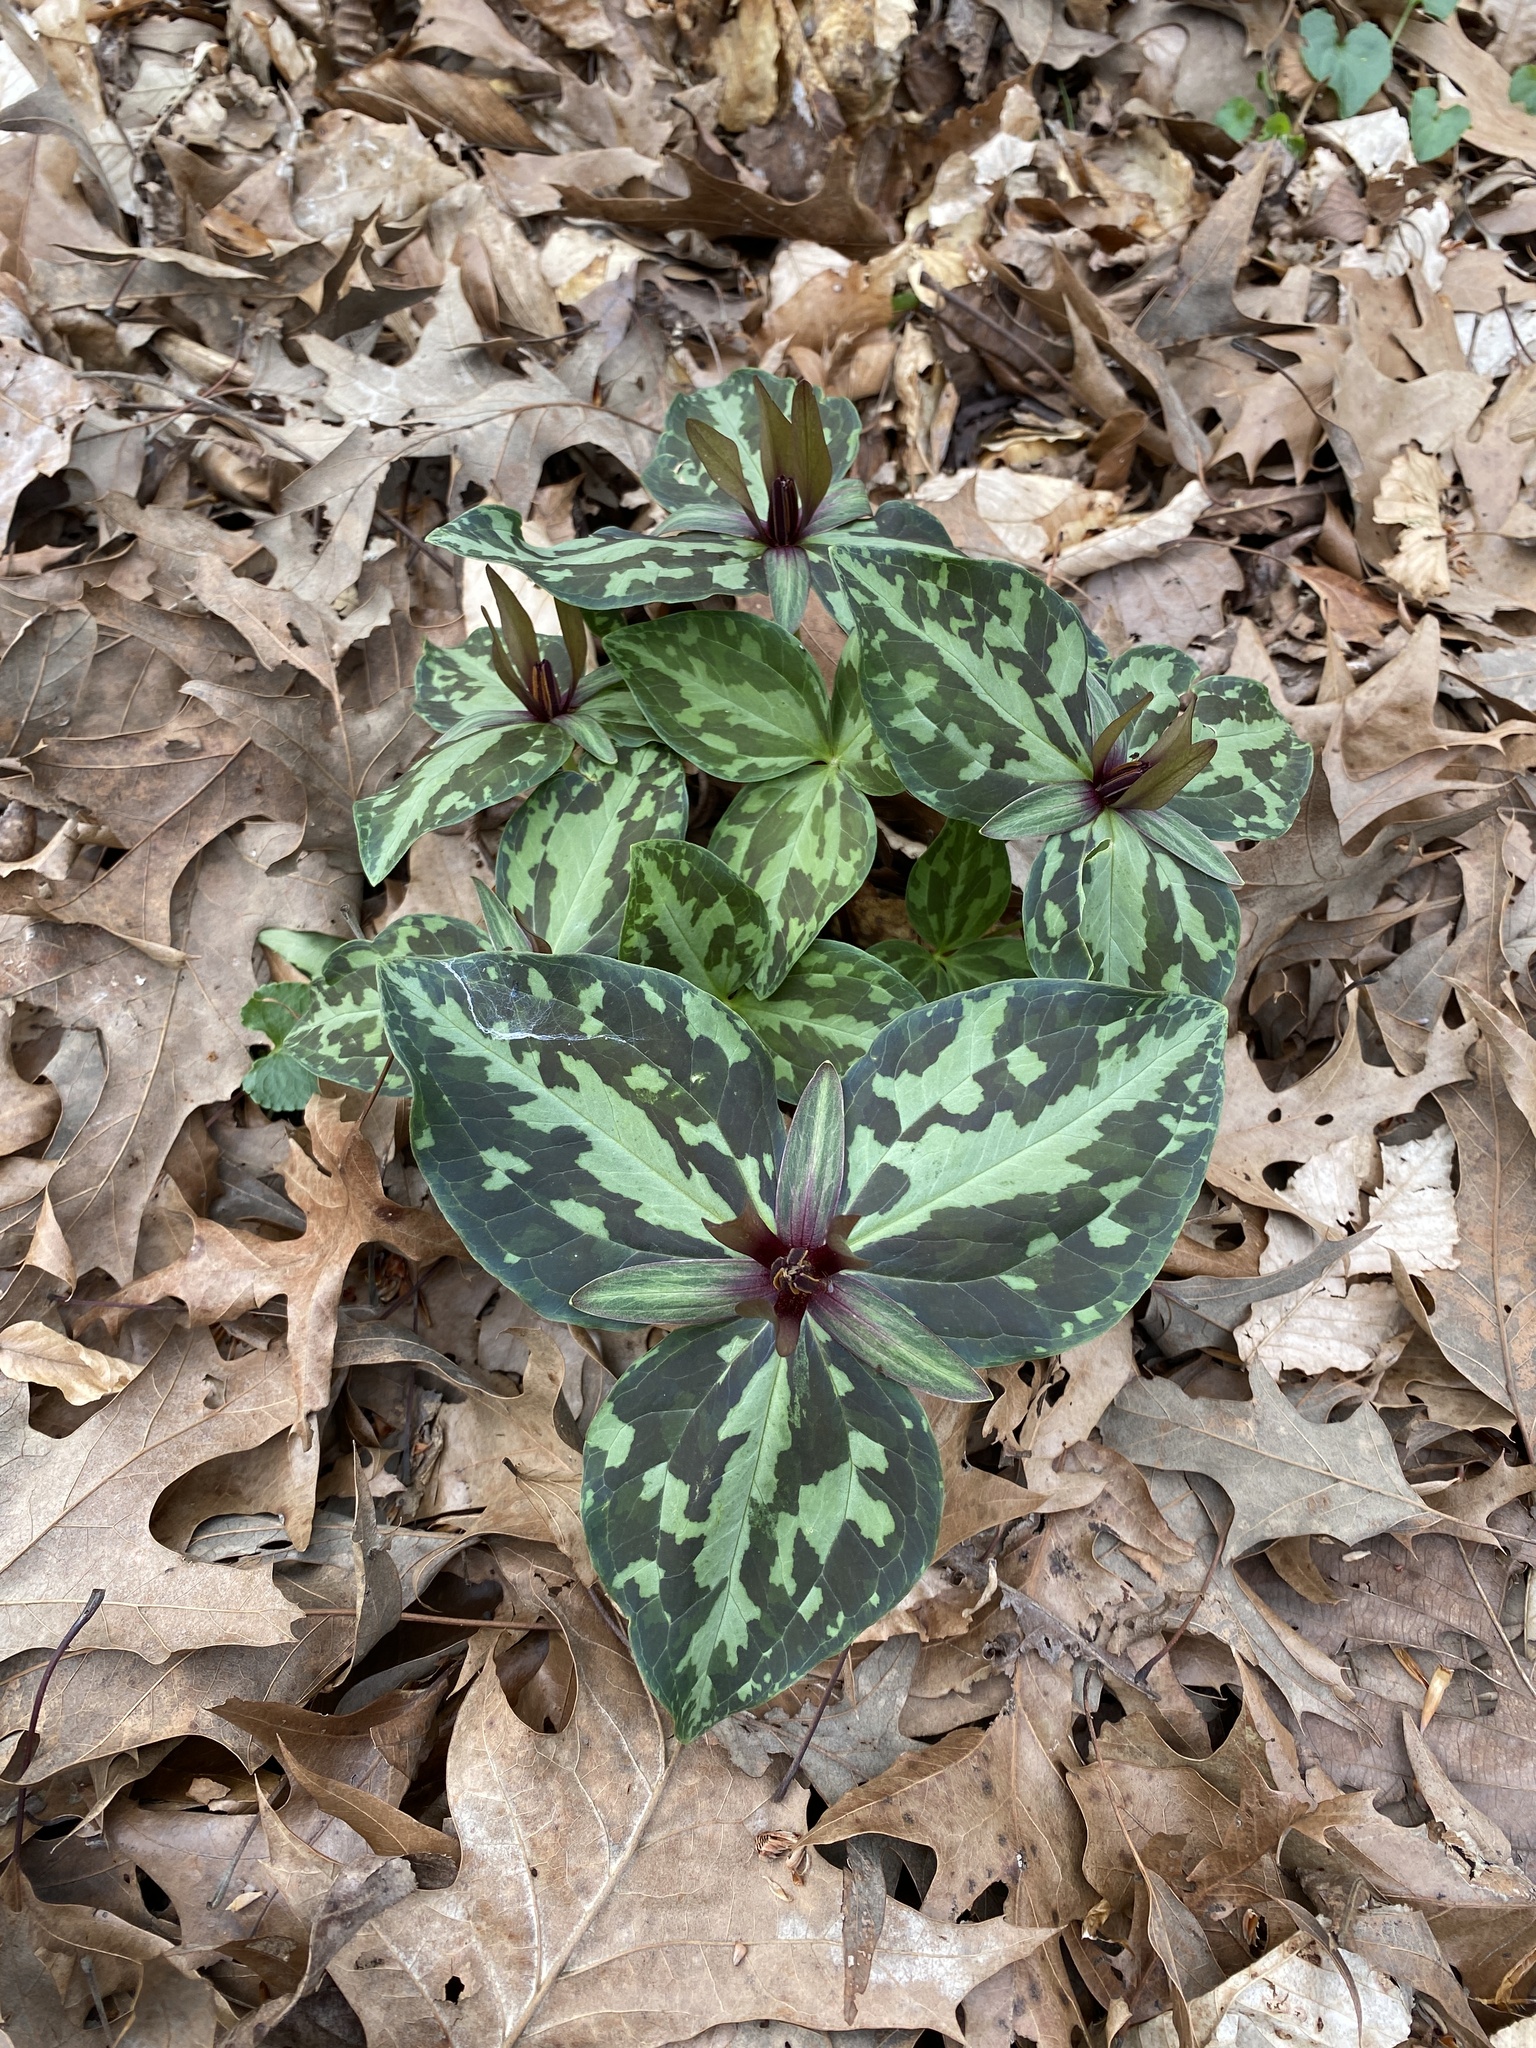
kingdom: Plantae
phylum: Tracheophyta
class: Liliopsida
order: Liliales
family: Melanthiaceae
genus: Trillium
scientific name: Trillium ludovicianum
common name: Louisiana toadshade
